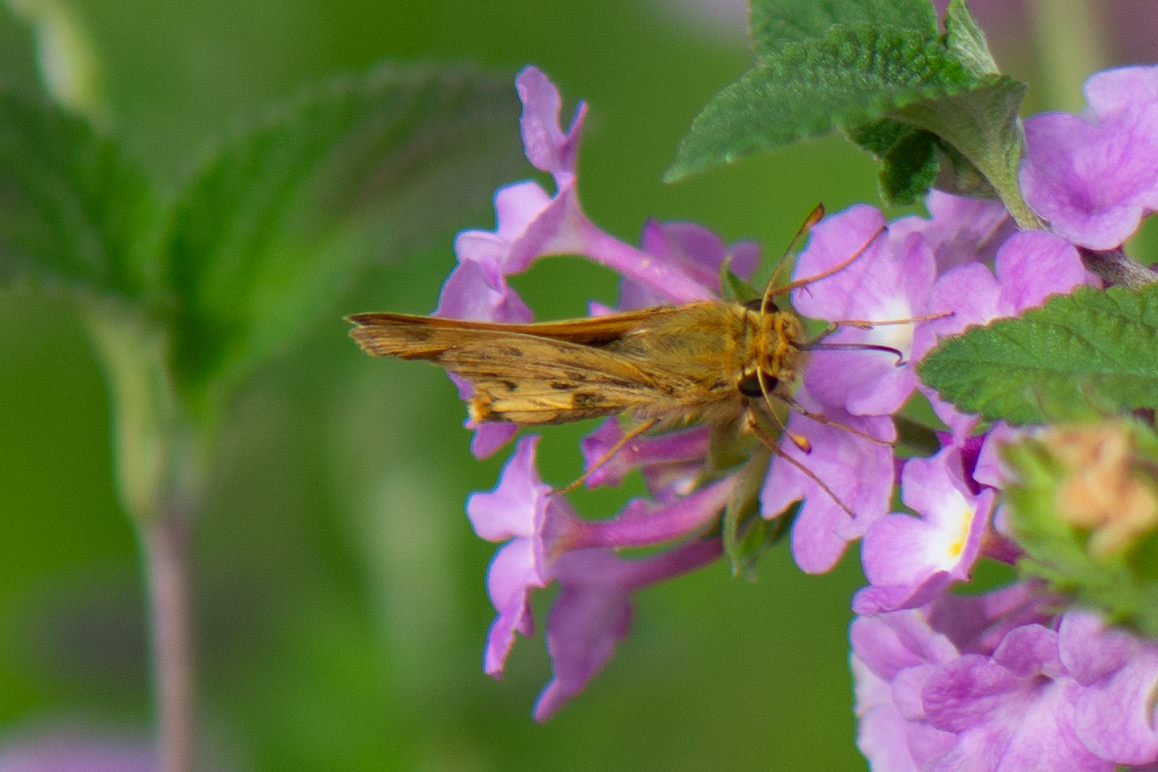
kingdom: Animalia
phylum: Arthropoda
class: Insecta
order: Lepidoptera
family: Hesperiidae
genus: Hylephila
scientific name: Hylephila phyleus
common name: Fiery skipper
